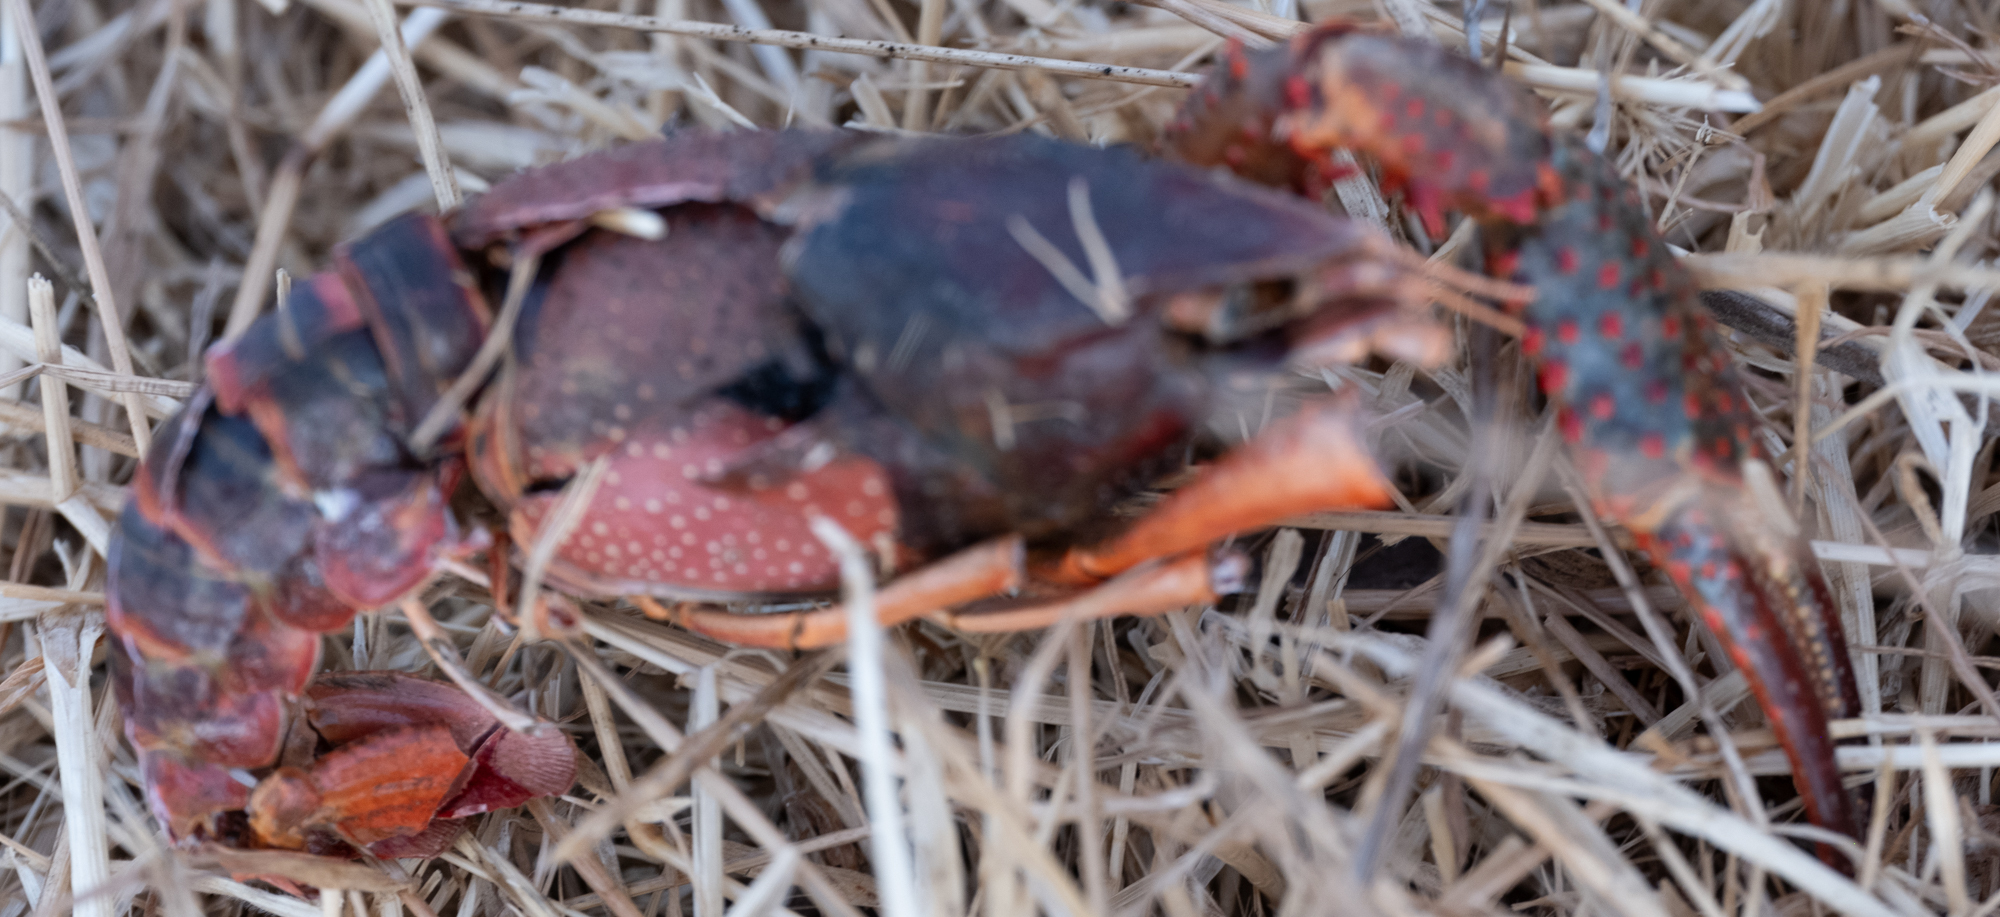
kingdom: Animalia
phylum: Arthropoda
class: Malacostraca
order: Decapoda
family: Cambaridae
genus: Procambarus
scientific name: Procambarus clarkii
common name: Red swamp crayfish
